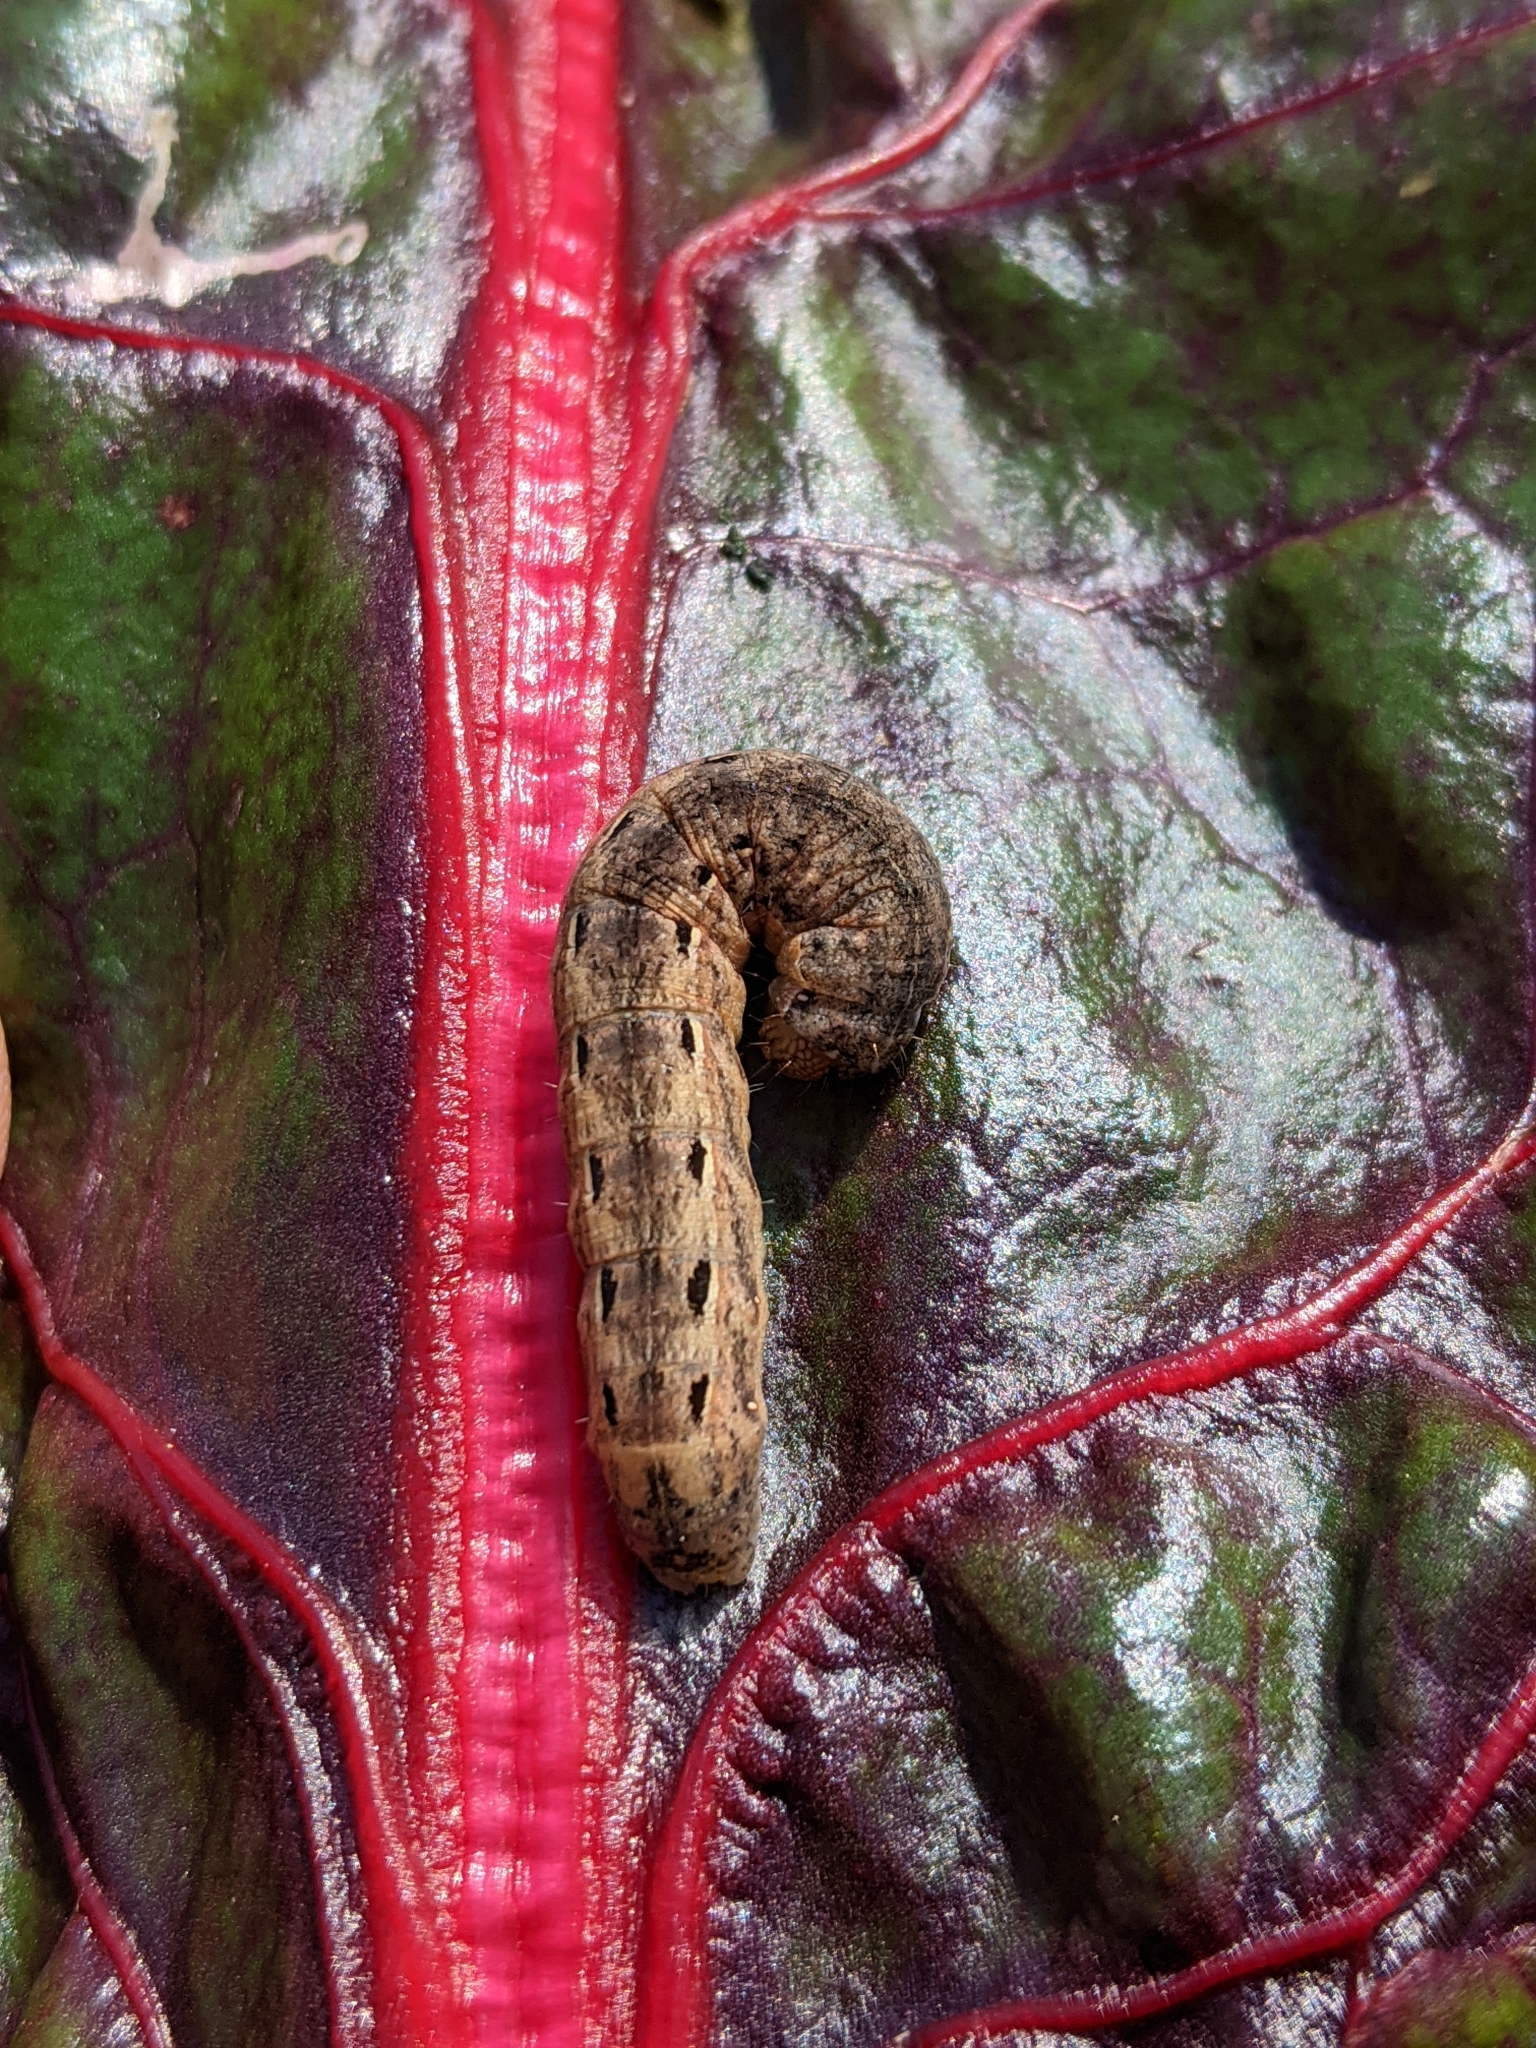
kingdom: Animalia
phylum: Arthropoda
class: Insecta
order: Lepidoptera
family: Noctuidae
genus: Noctua
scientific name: Noctua pronuba
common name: Large yellow underwing
